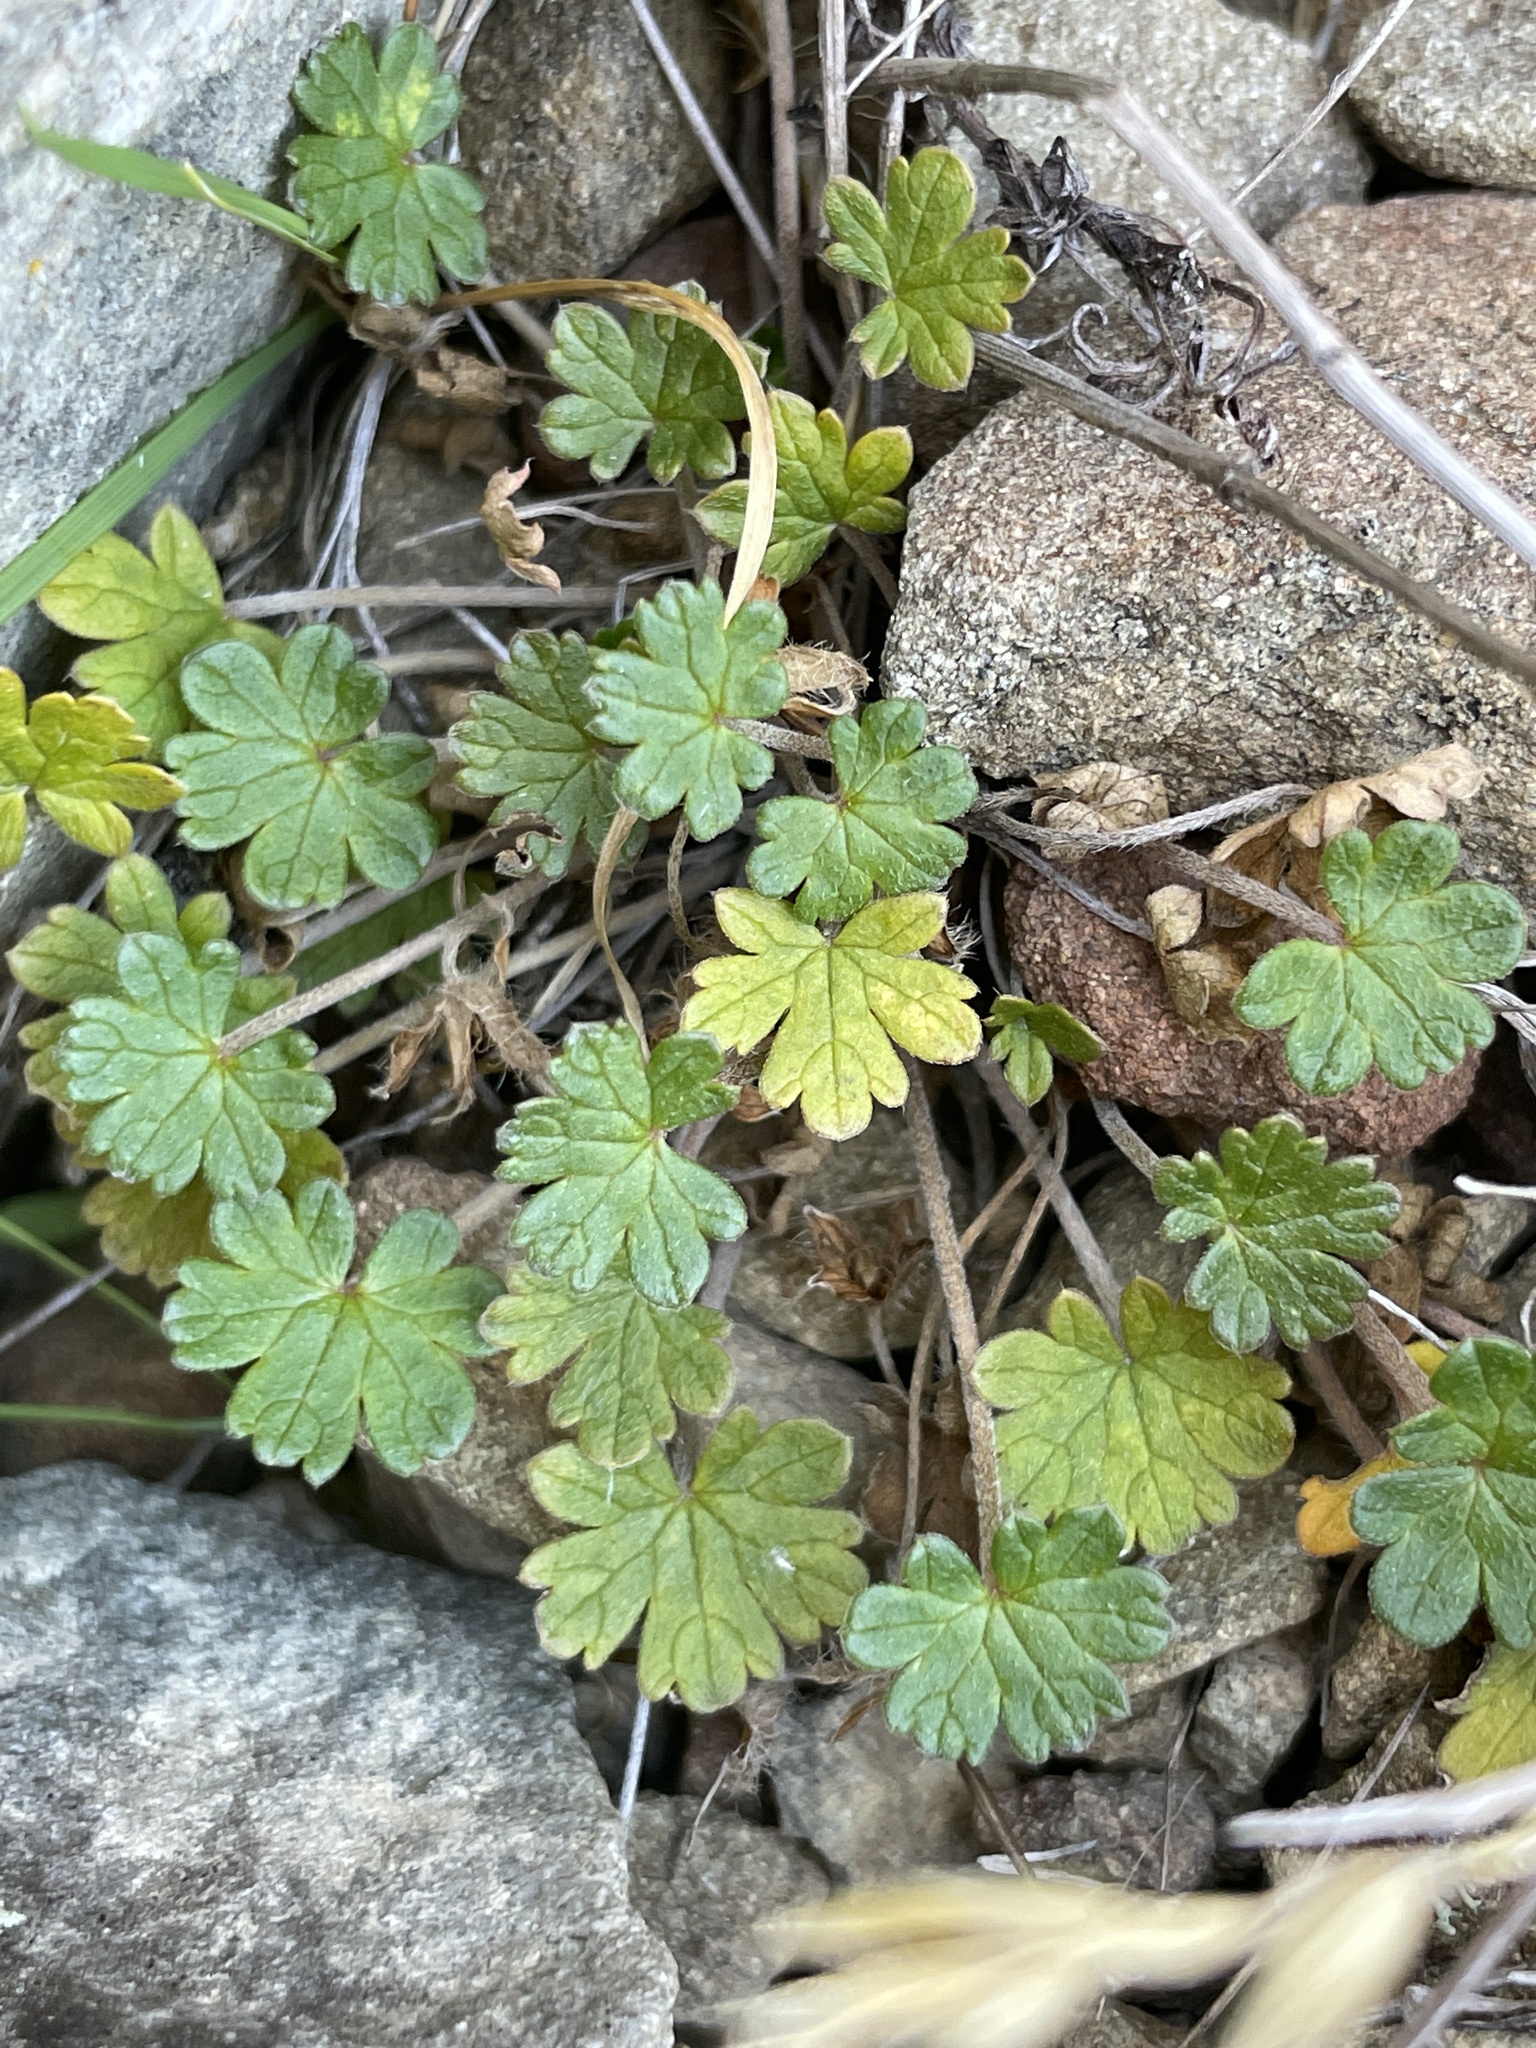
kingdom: Plantae
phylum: Tracheophyta
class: Magnoliopsida
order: Geraniales
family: Geraniaceae
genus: Geranium
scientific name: Geranium brevicaule
